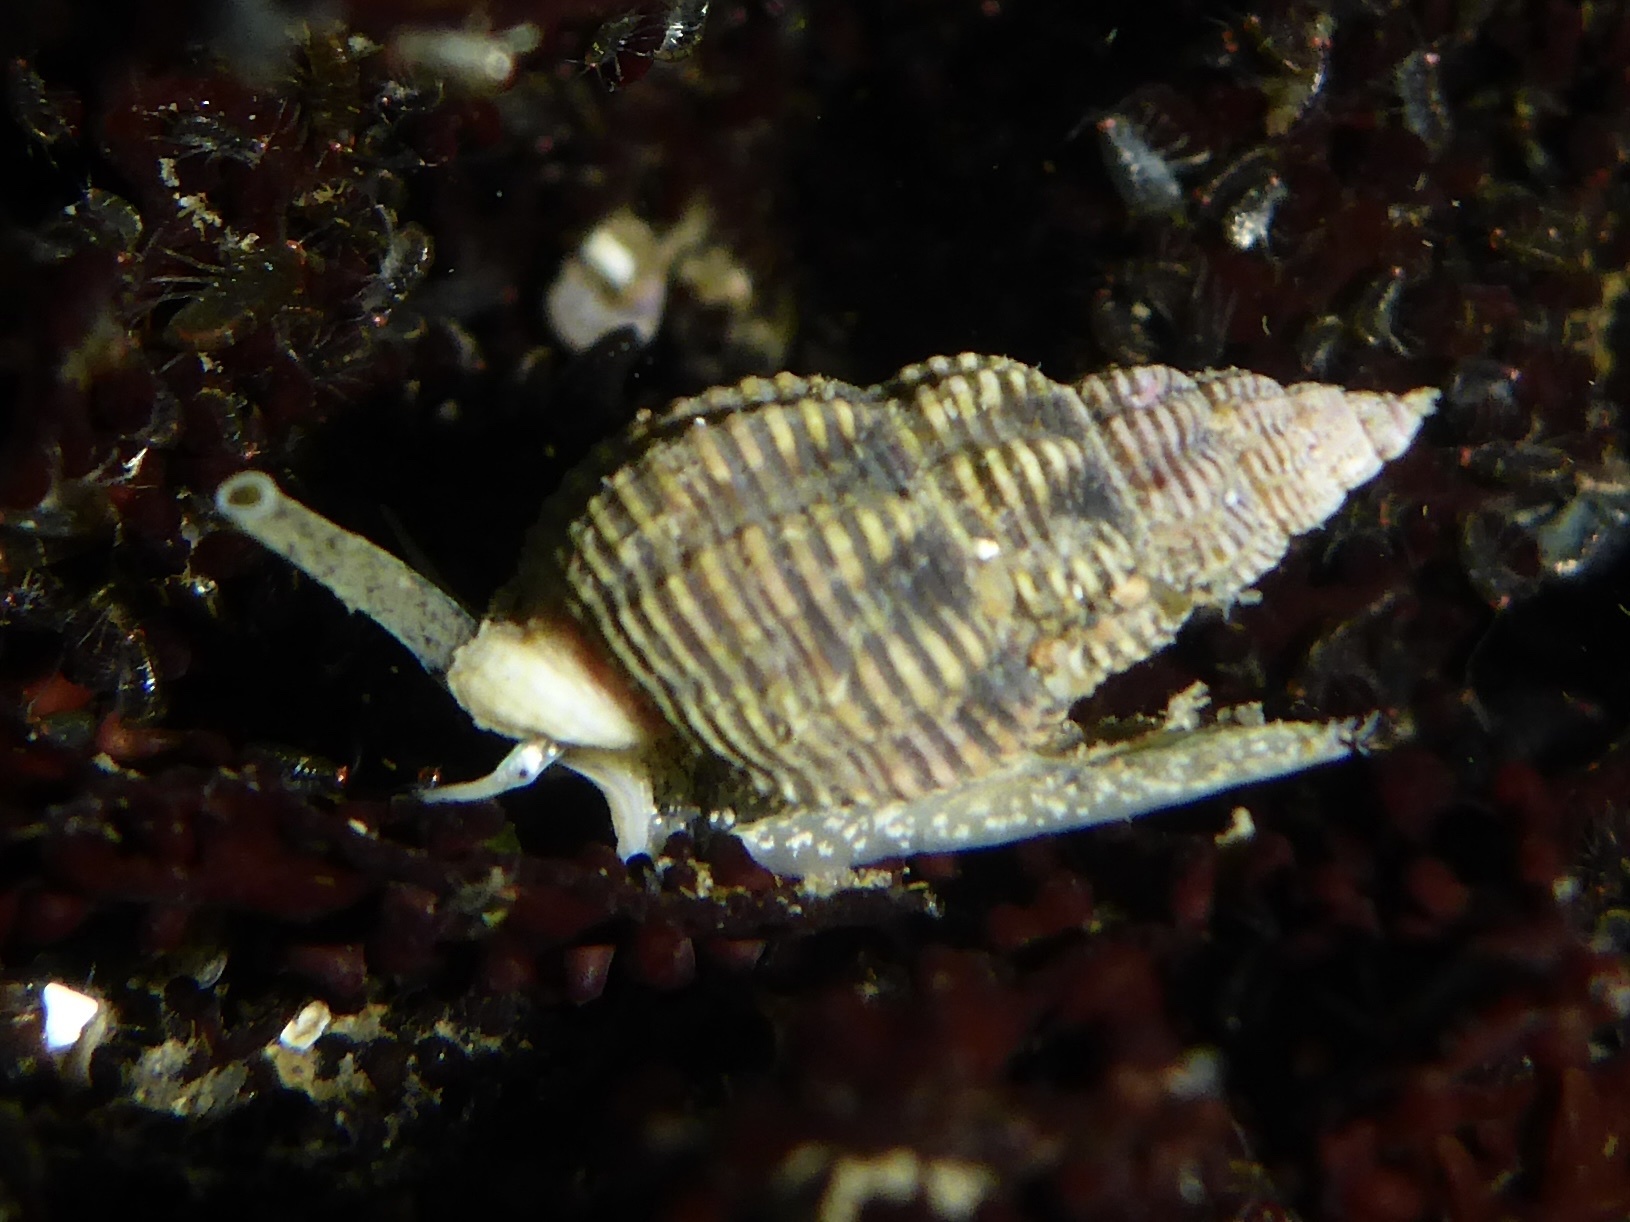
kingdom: Animalia
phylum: Mollusca
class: Gastropoda
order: Neogastropoda
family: Nassariidae
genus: Nassarius
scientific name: Nassarius mendicus
